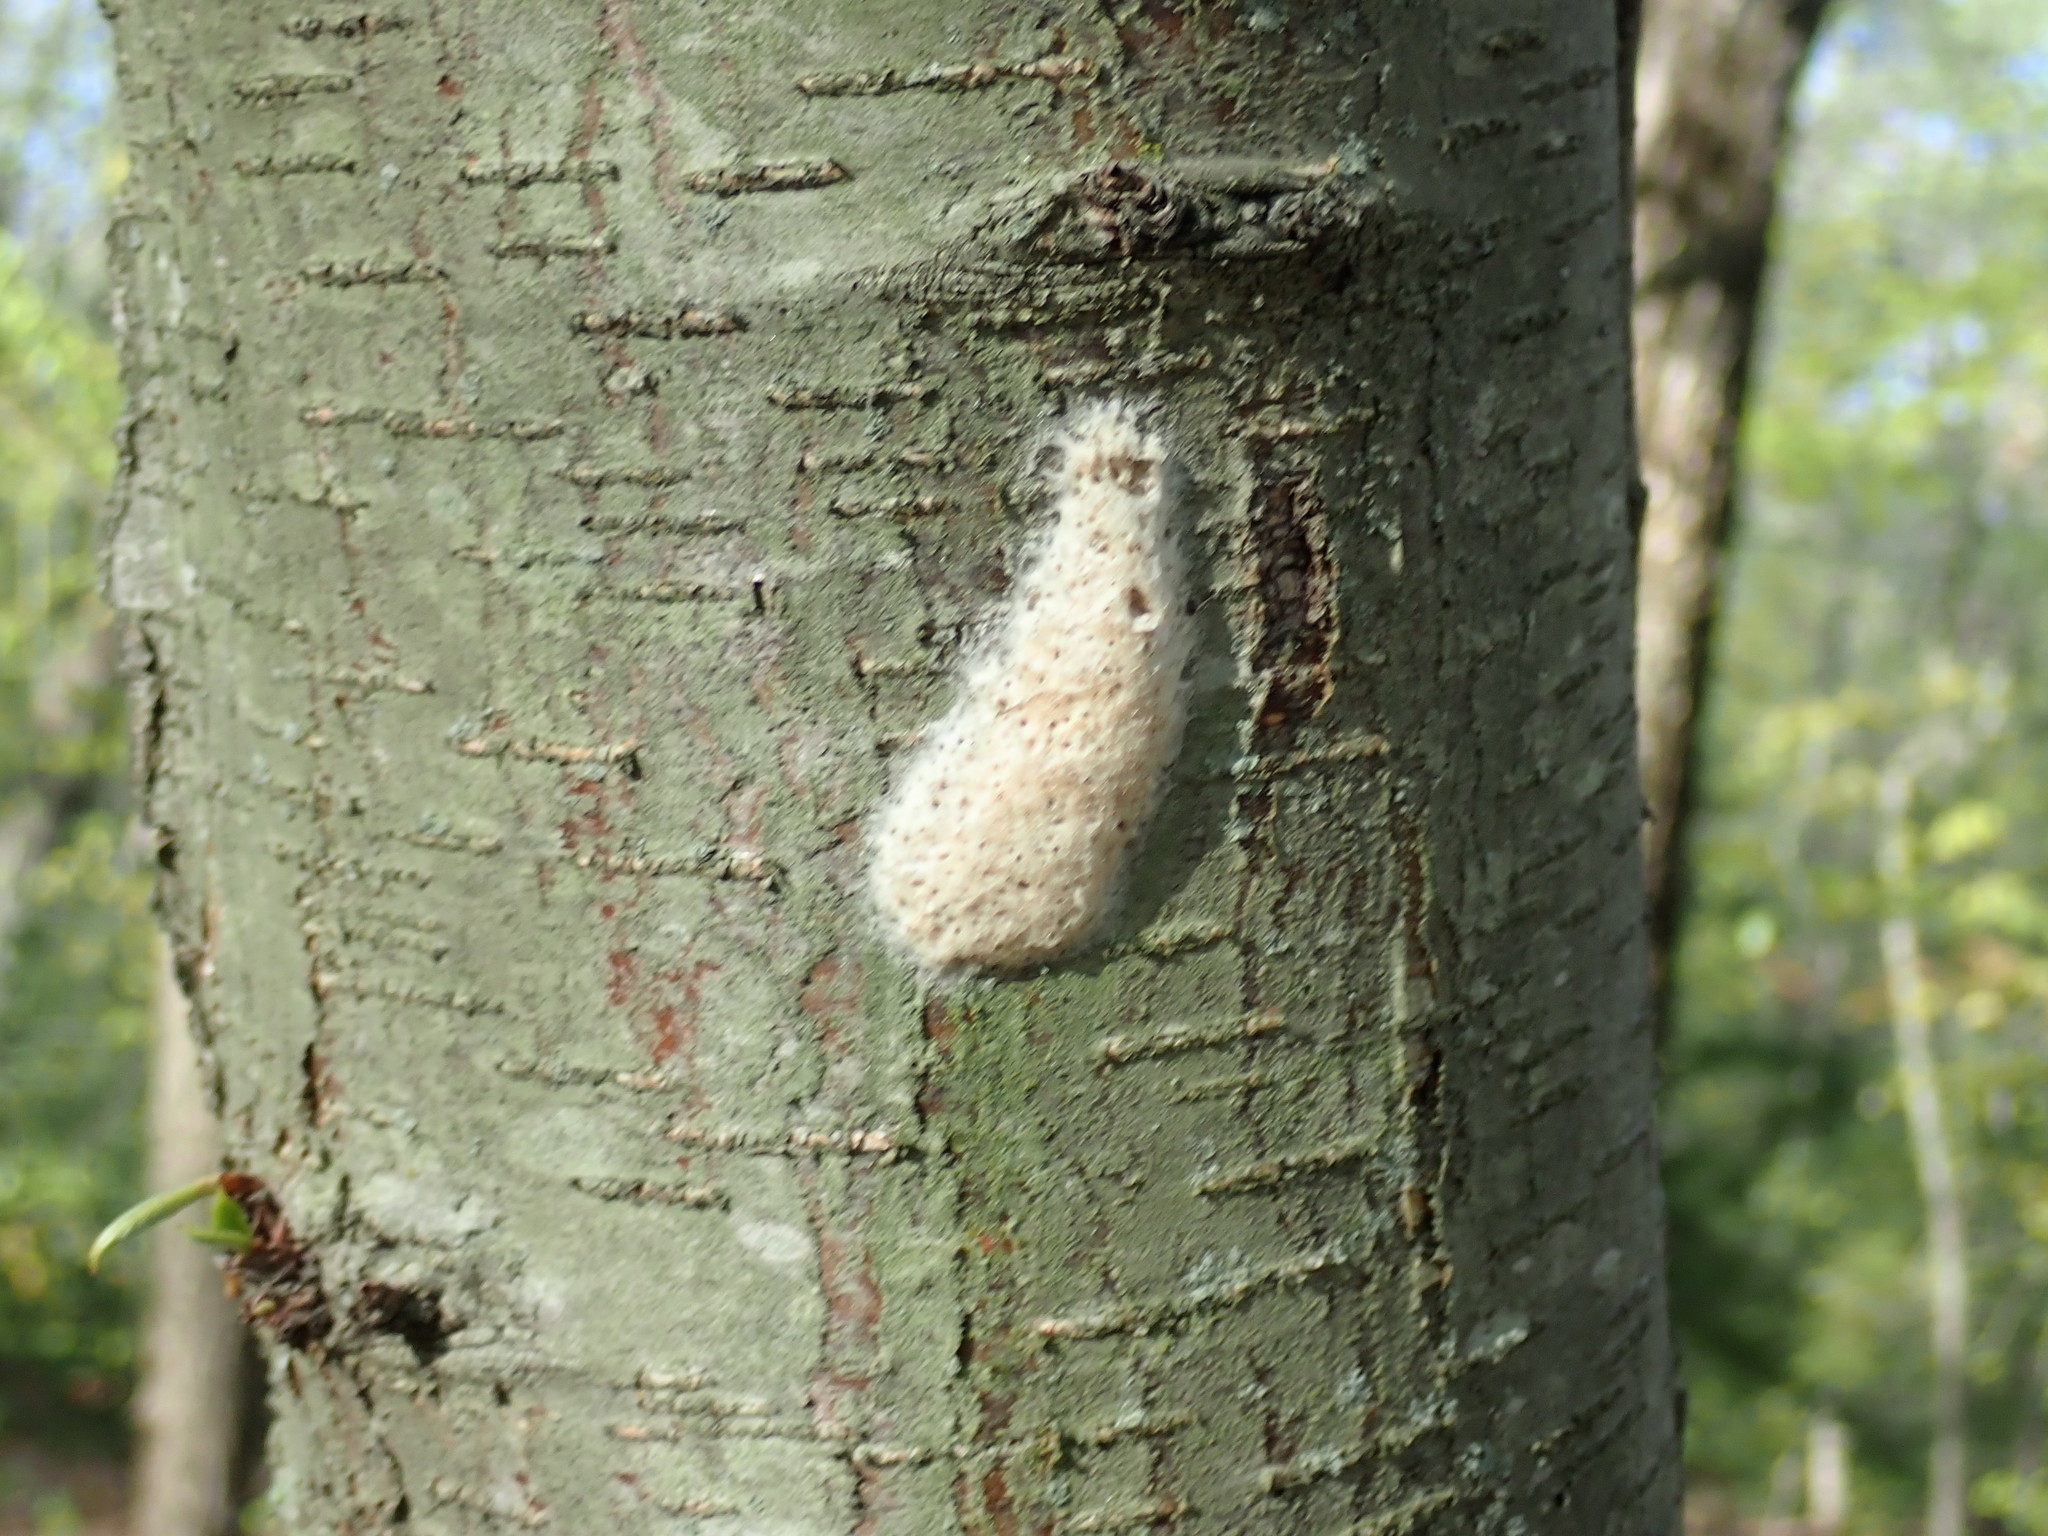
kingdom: Animalia
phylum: Arthropoda
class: Insecta
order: Lepidoptera
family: Erebidae
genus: Lymantria
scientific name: Lymantria dispar
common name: Gypsy moth
